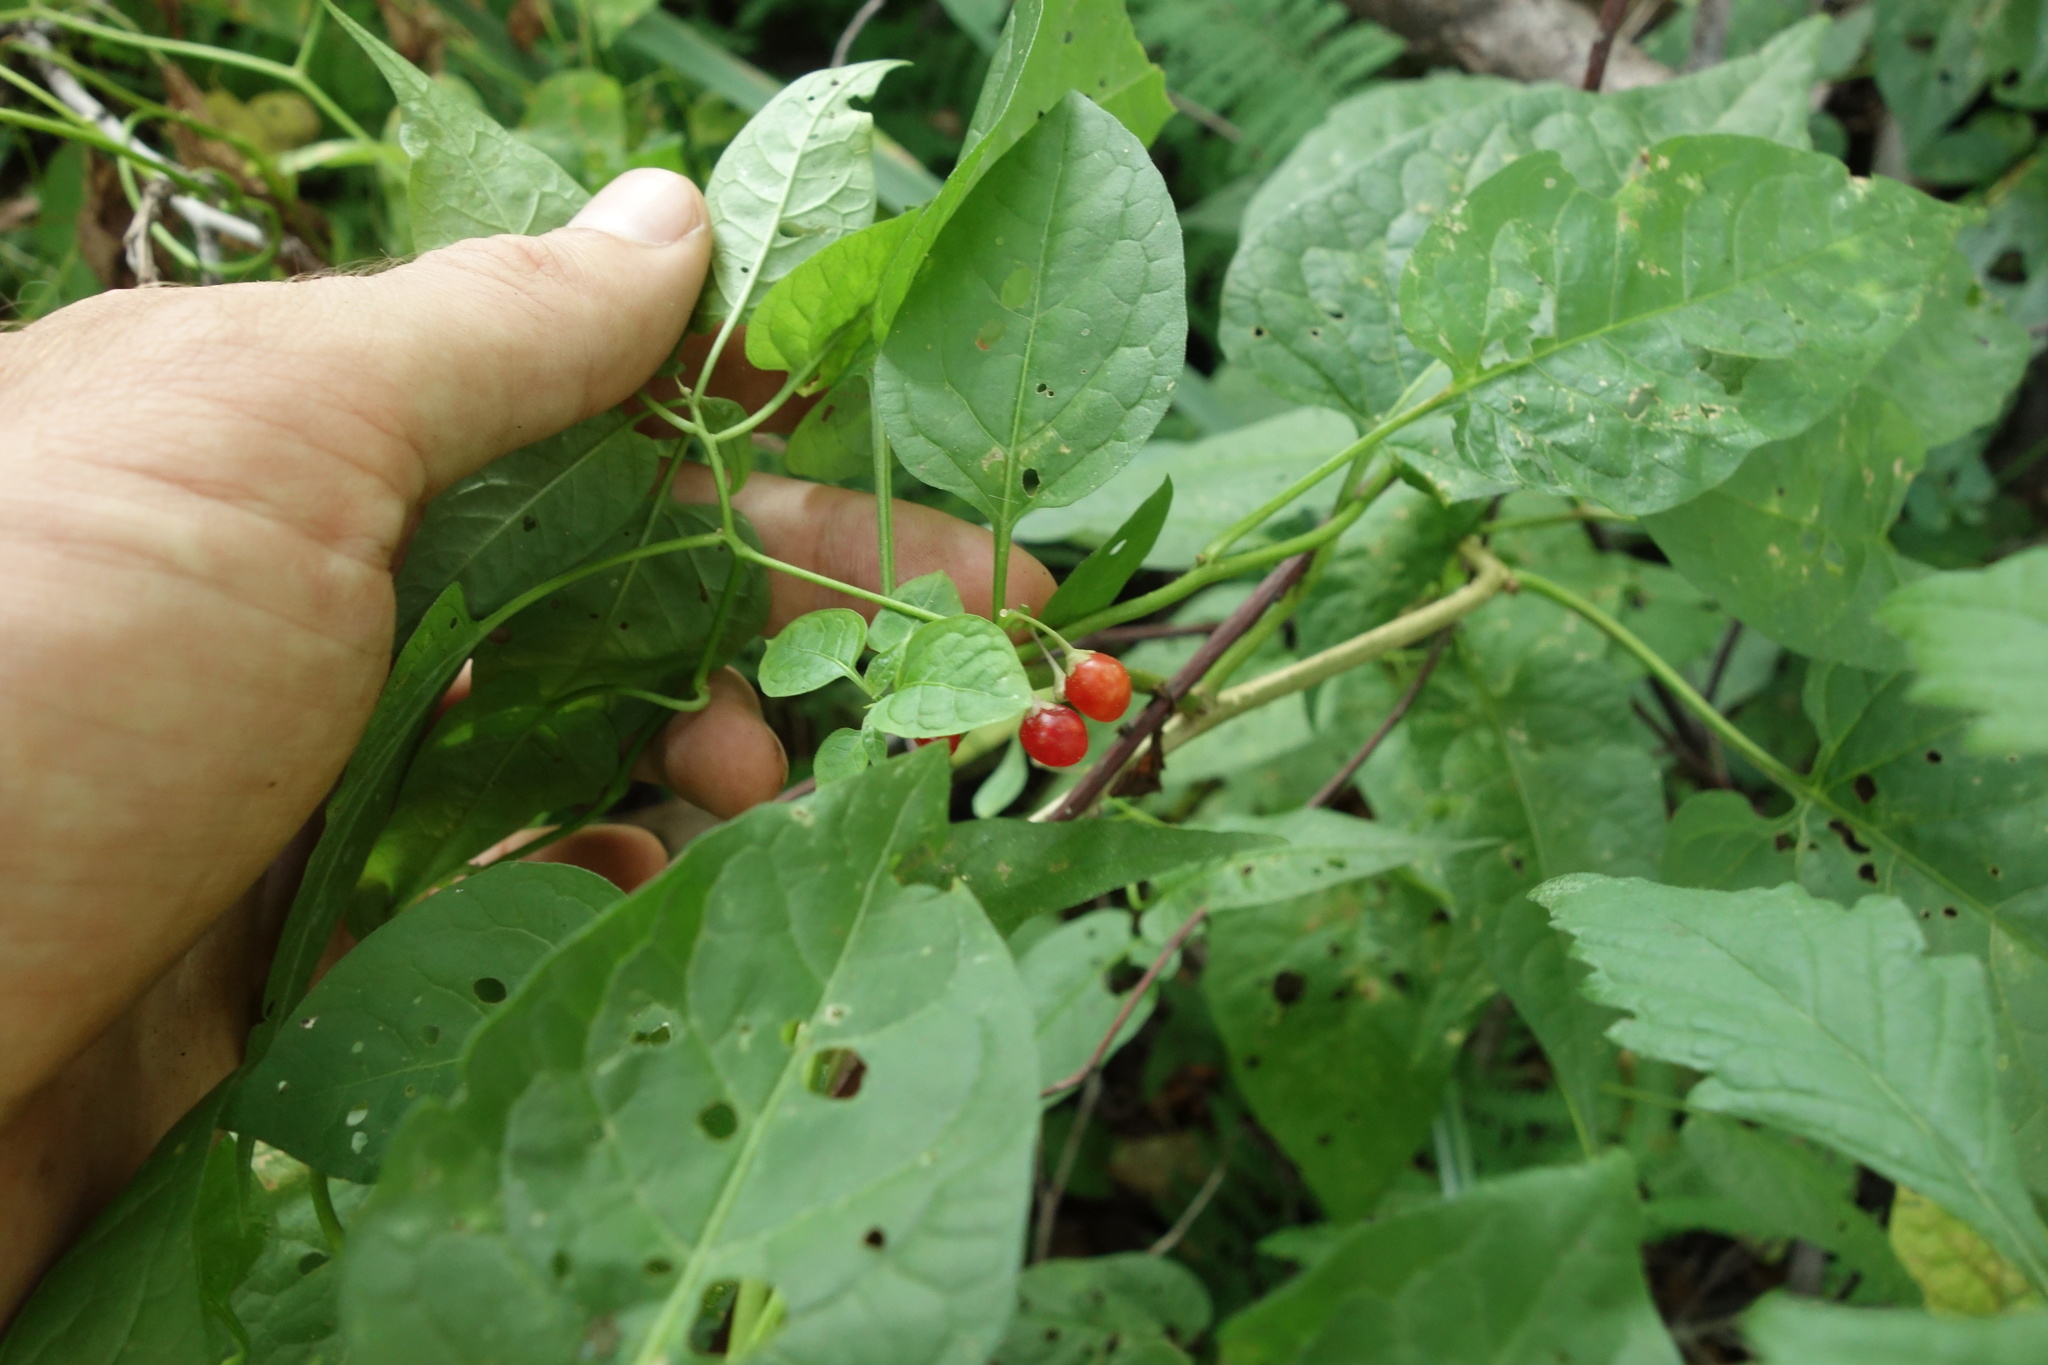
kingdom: Plantae
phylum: Tracheophyta
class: Magnoliopsida
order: Solanales
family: Solanaceae
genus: Solanum
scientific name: Solanum dulcamara
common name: Climbing nightshade
